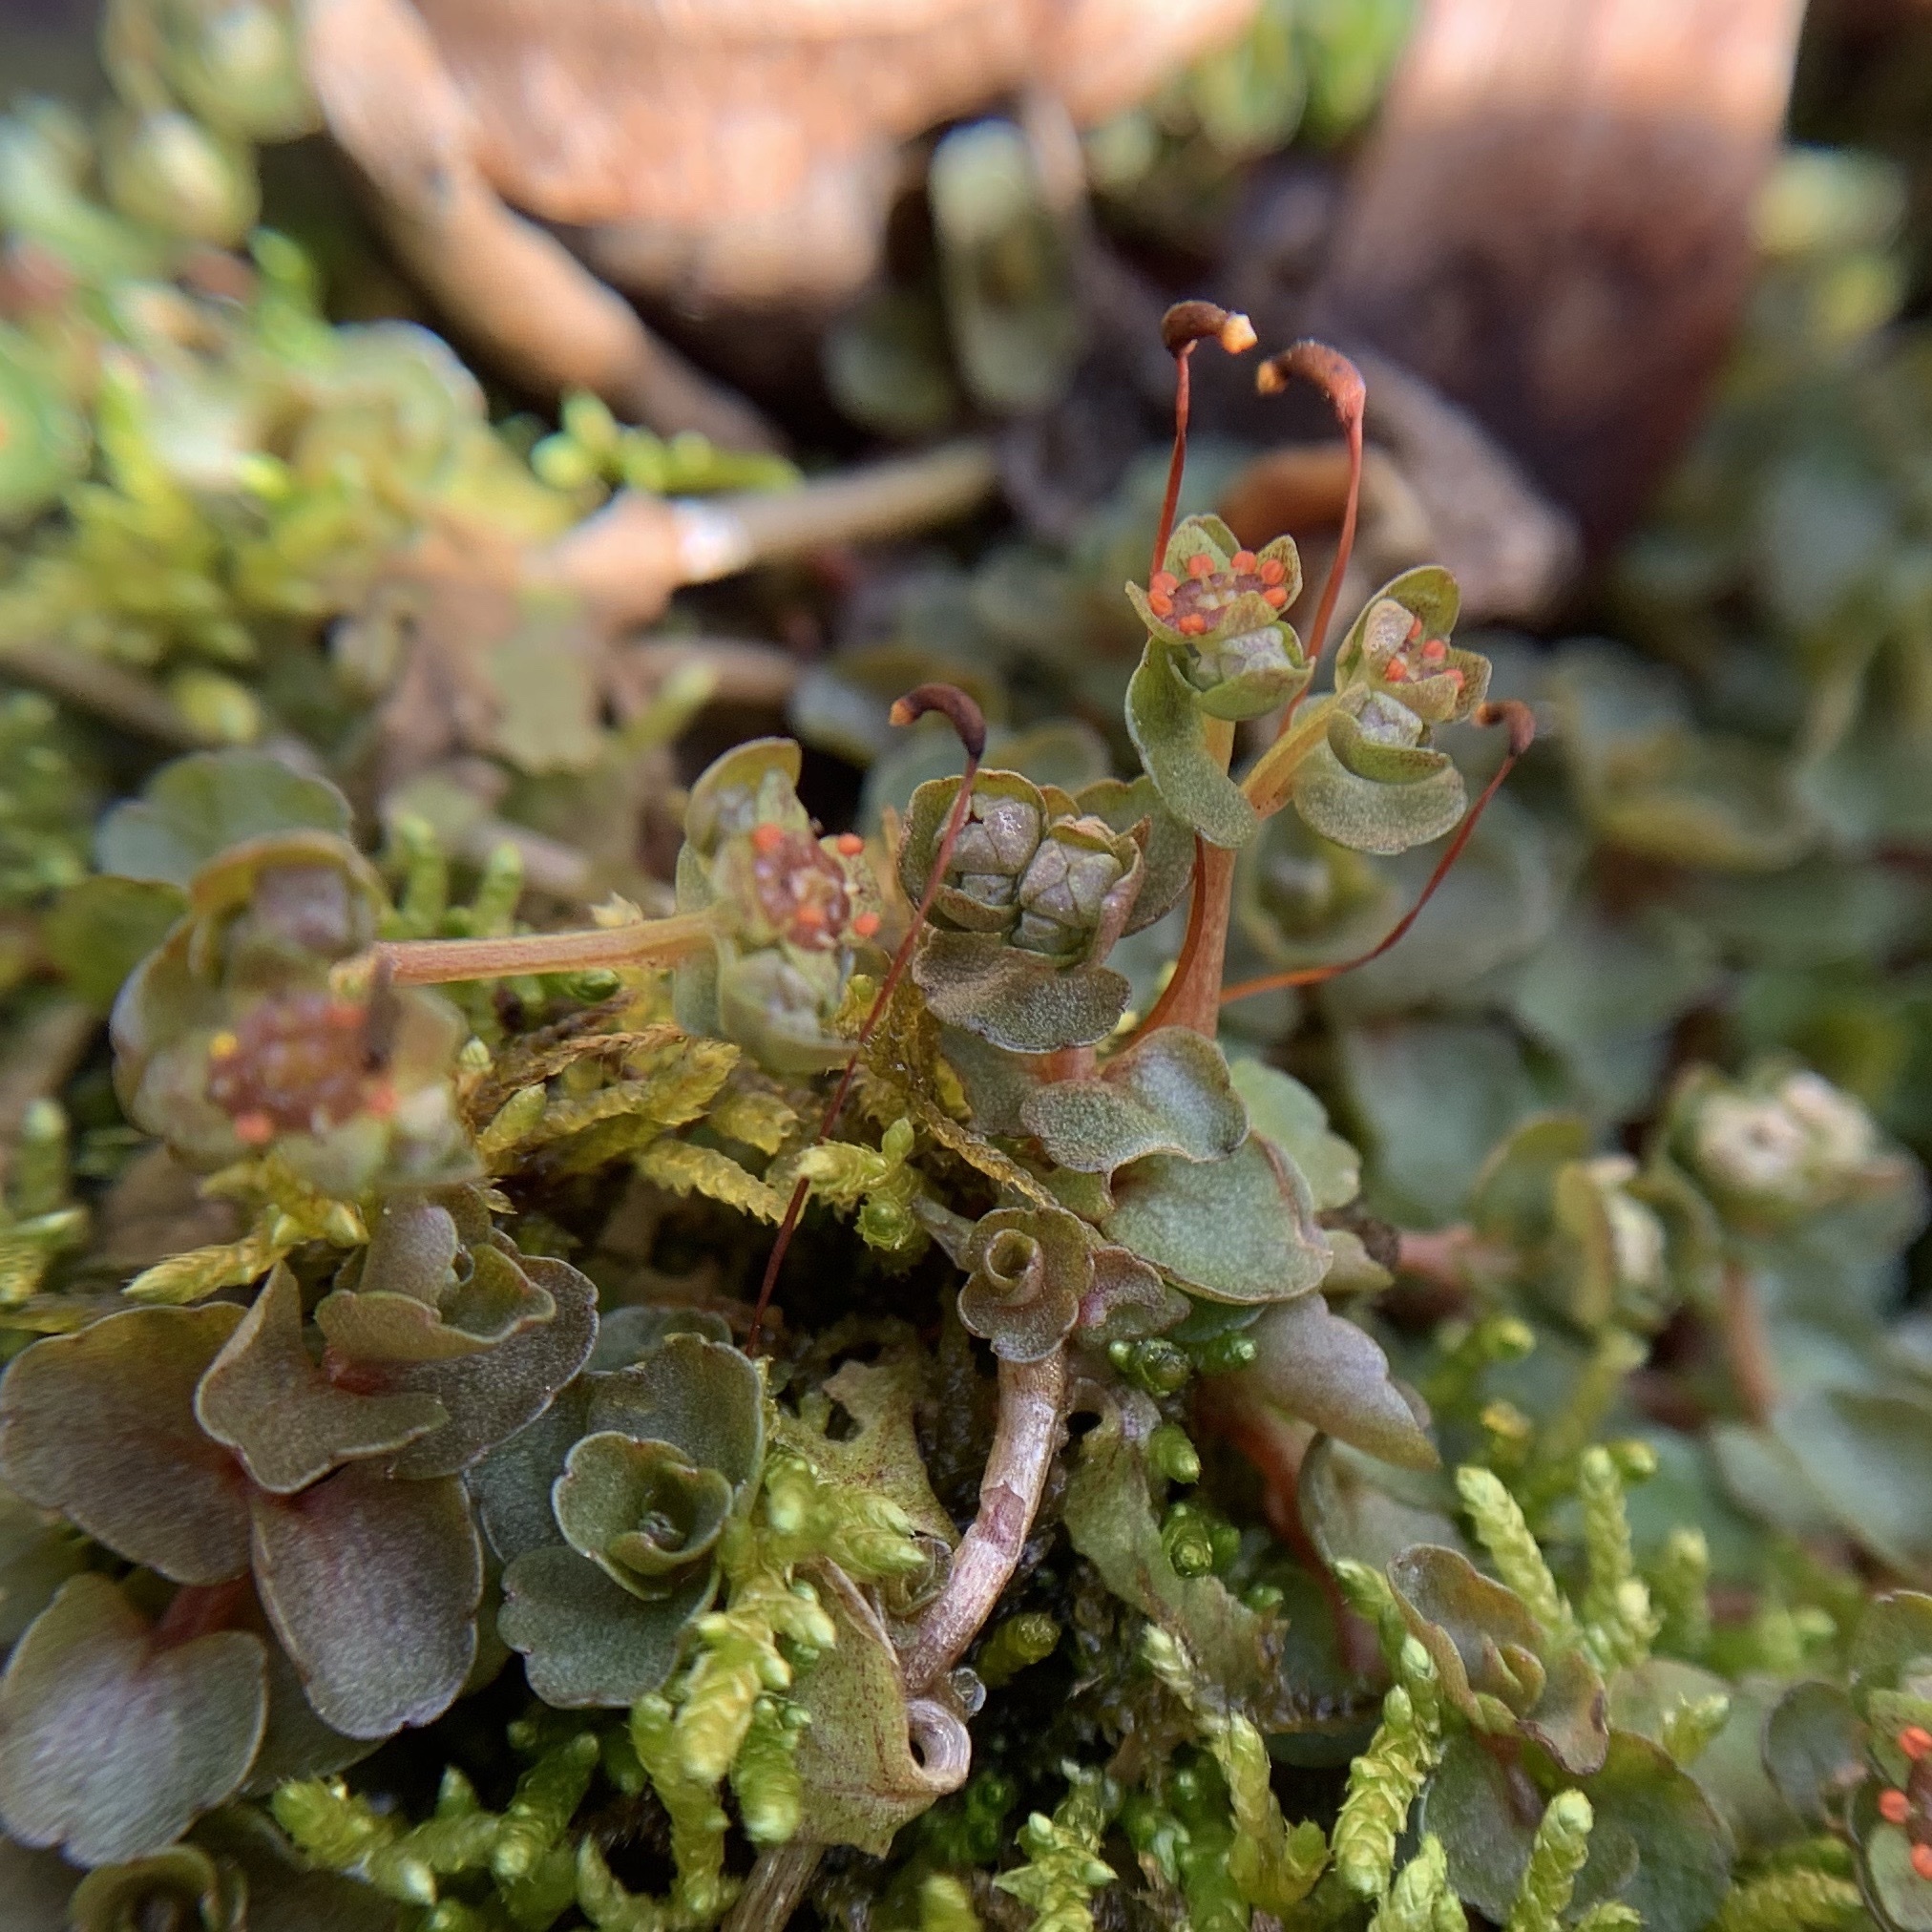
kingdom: Plantae
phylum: Tracheophyta
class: Magnoliopsida
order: Saxifragales
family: Saxifragaceae
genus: Chrysosplenium
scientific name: Chrysosplenium americanum
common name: American golden-saxifrage
